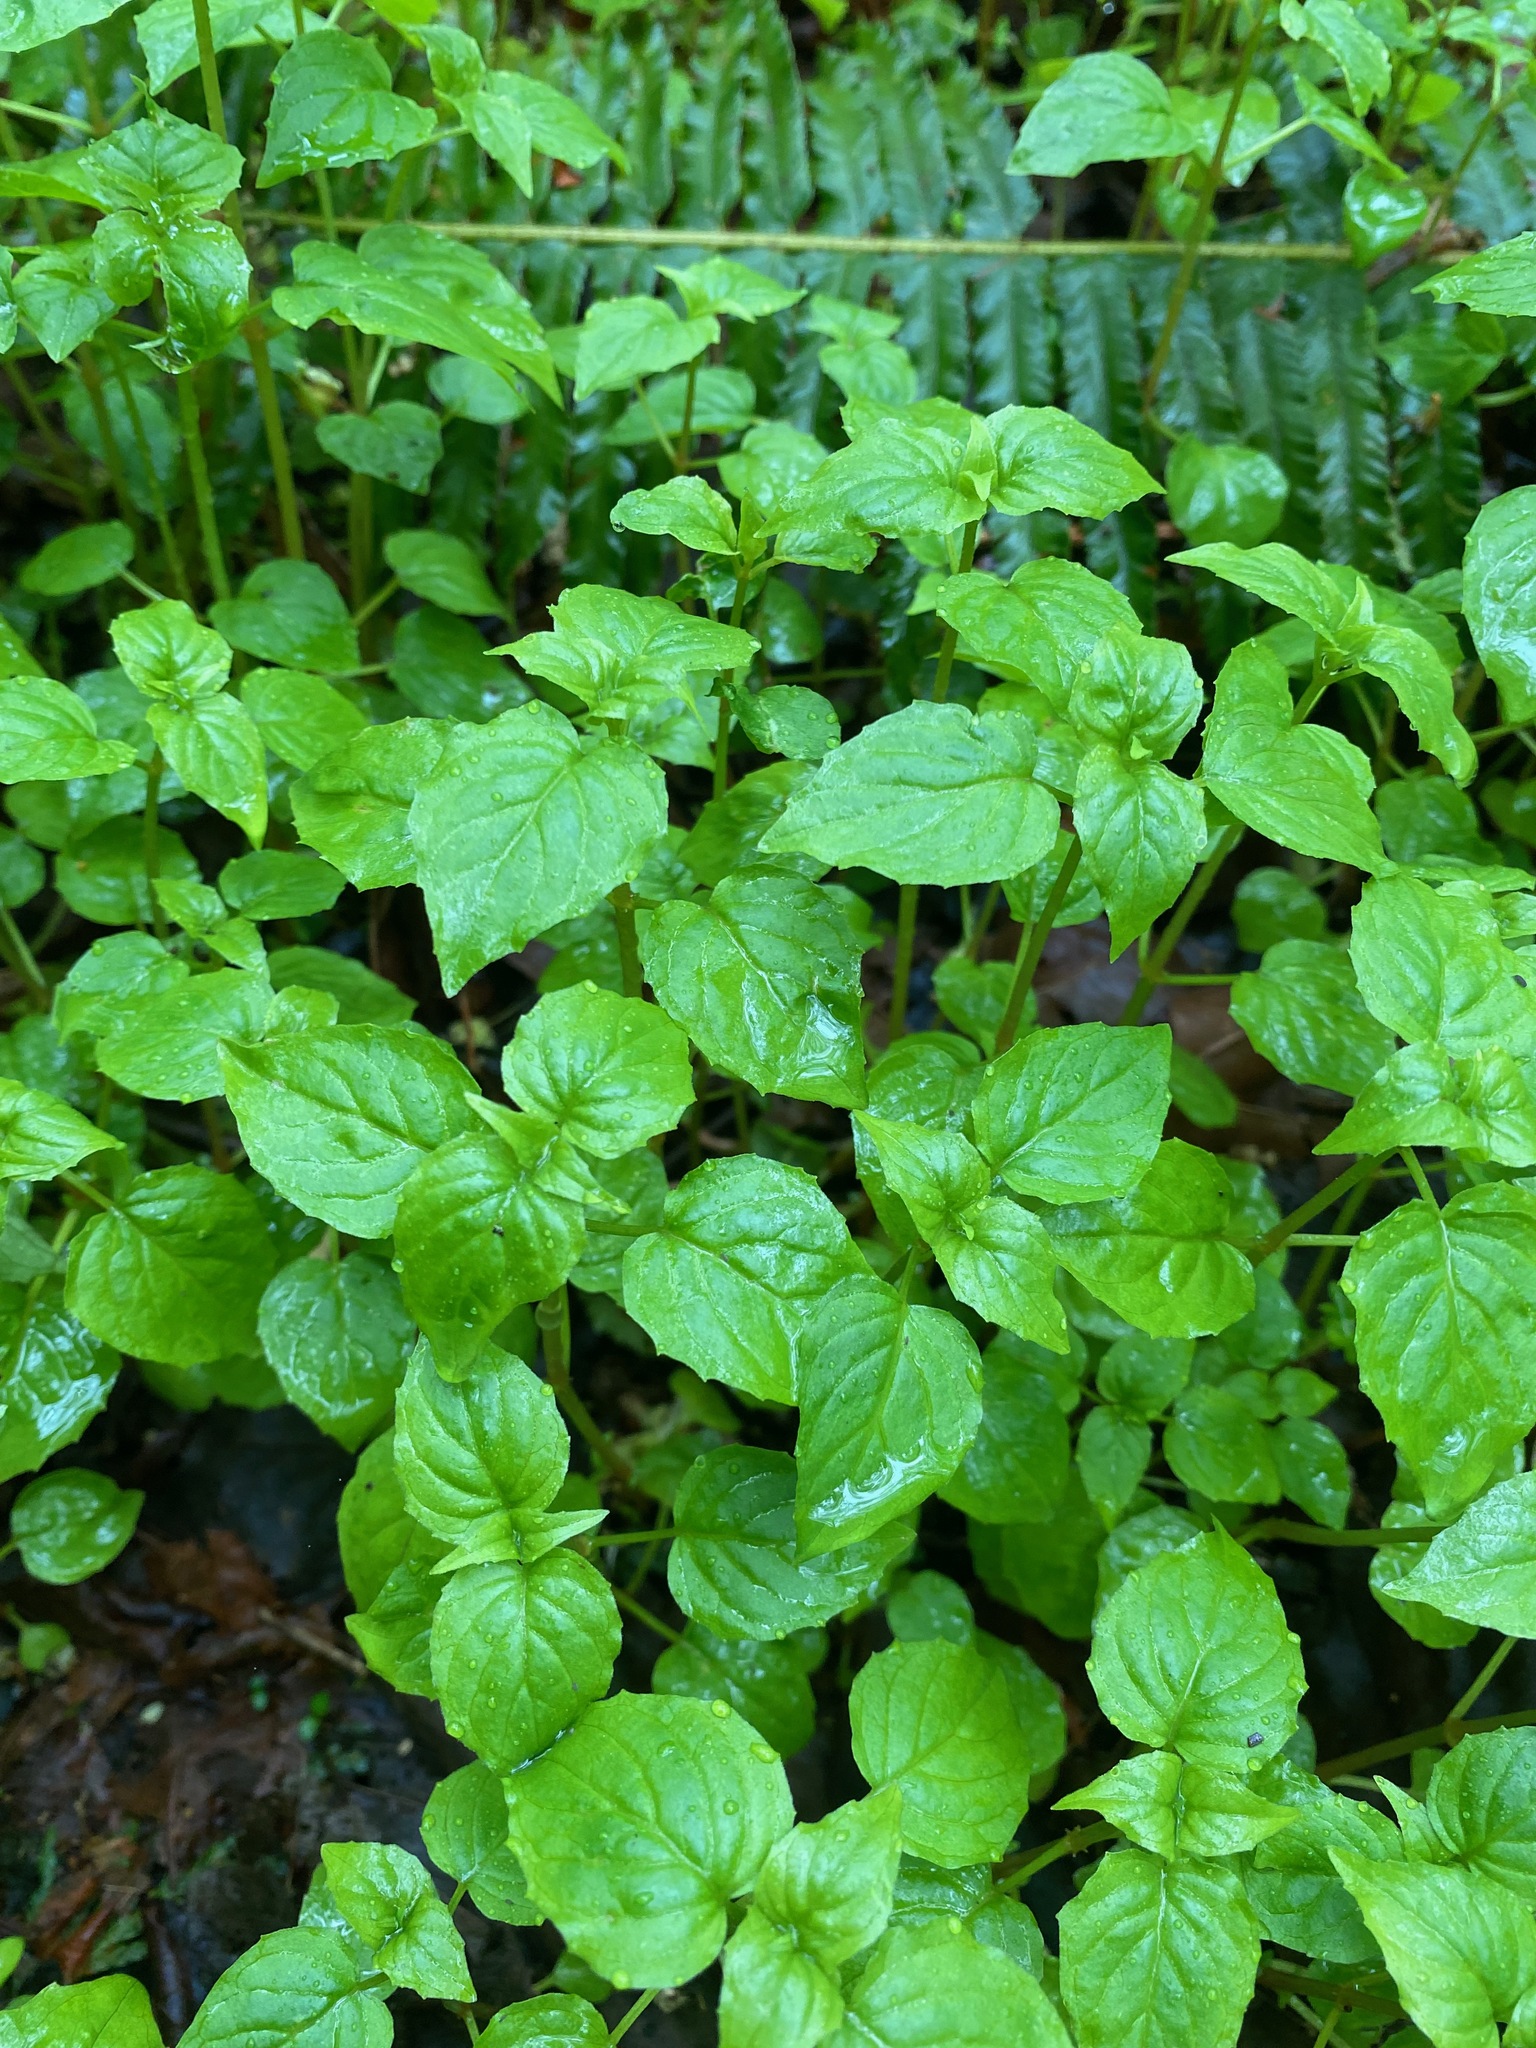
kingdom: Plantae
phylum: Tracheophyta
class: Magnoliopsida
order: Myrtales
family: Onagraceae
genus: Circaea
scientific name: Circaea alpina
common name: Alpine enchanter's-nightshade
